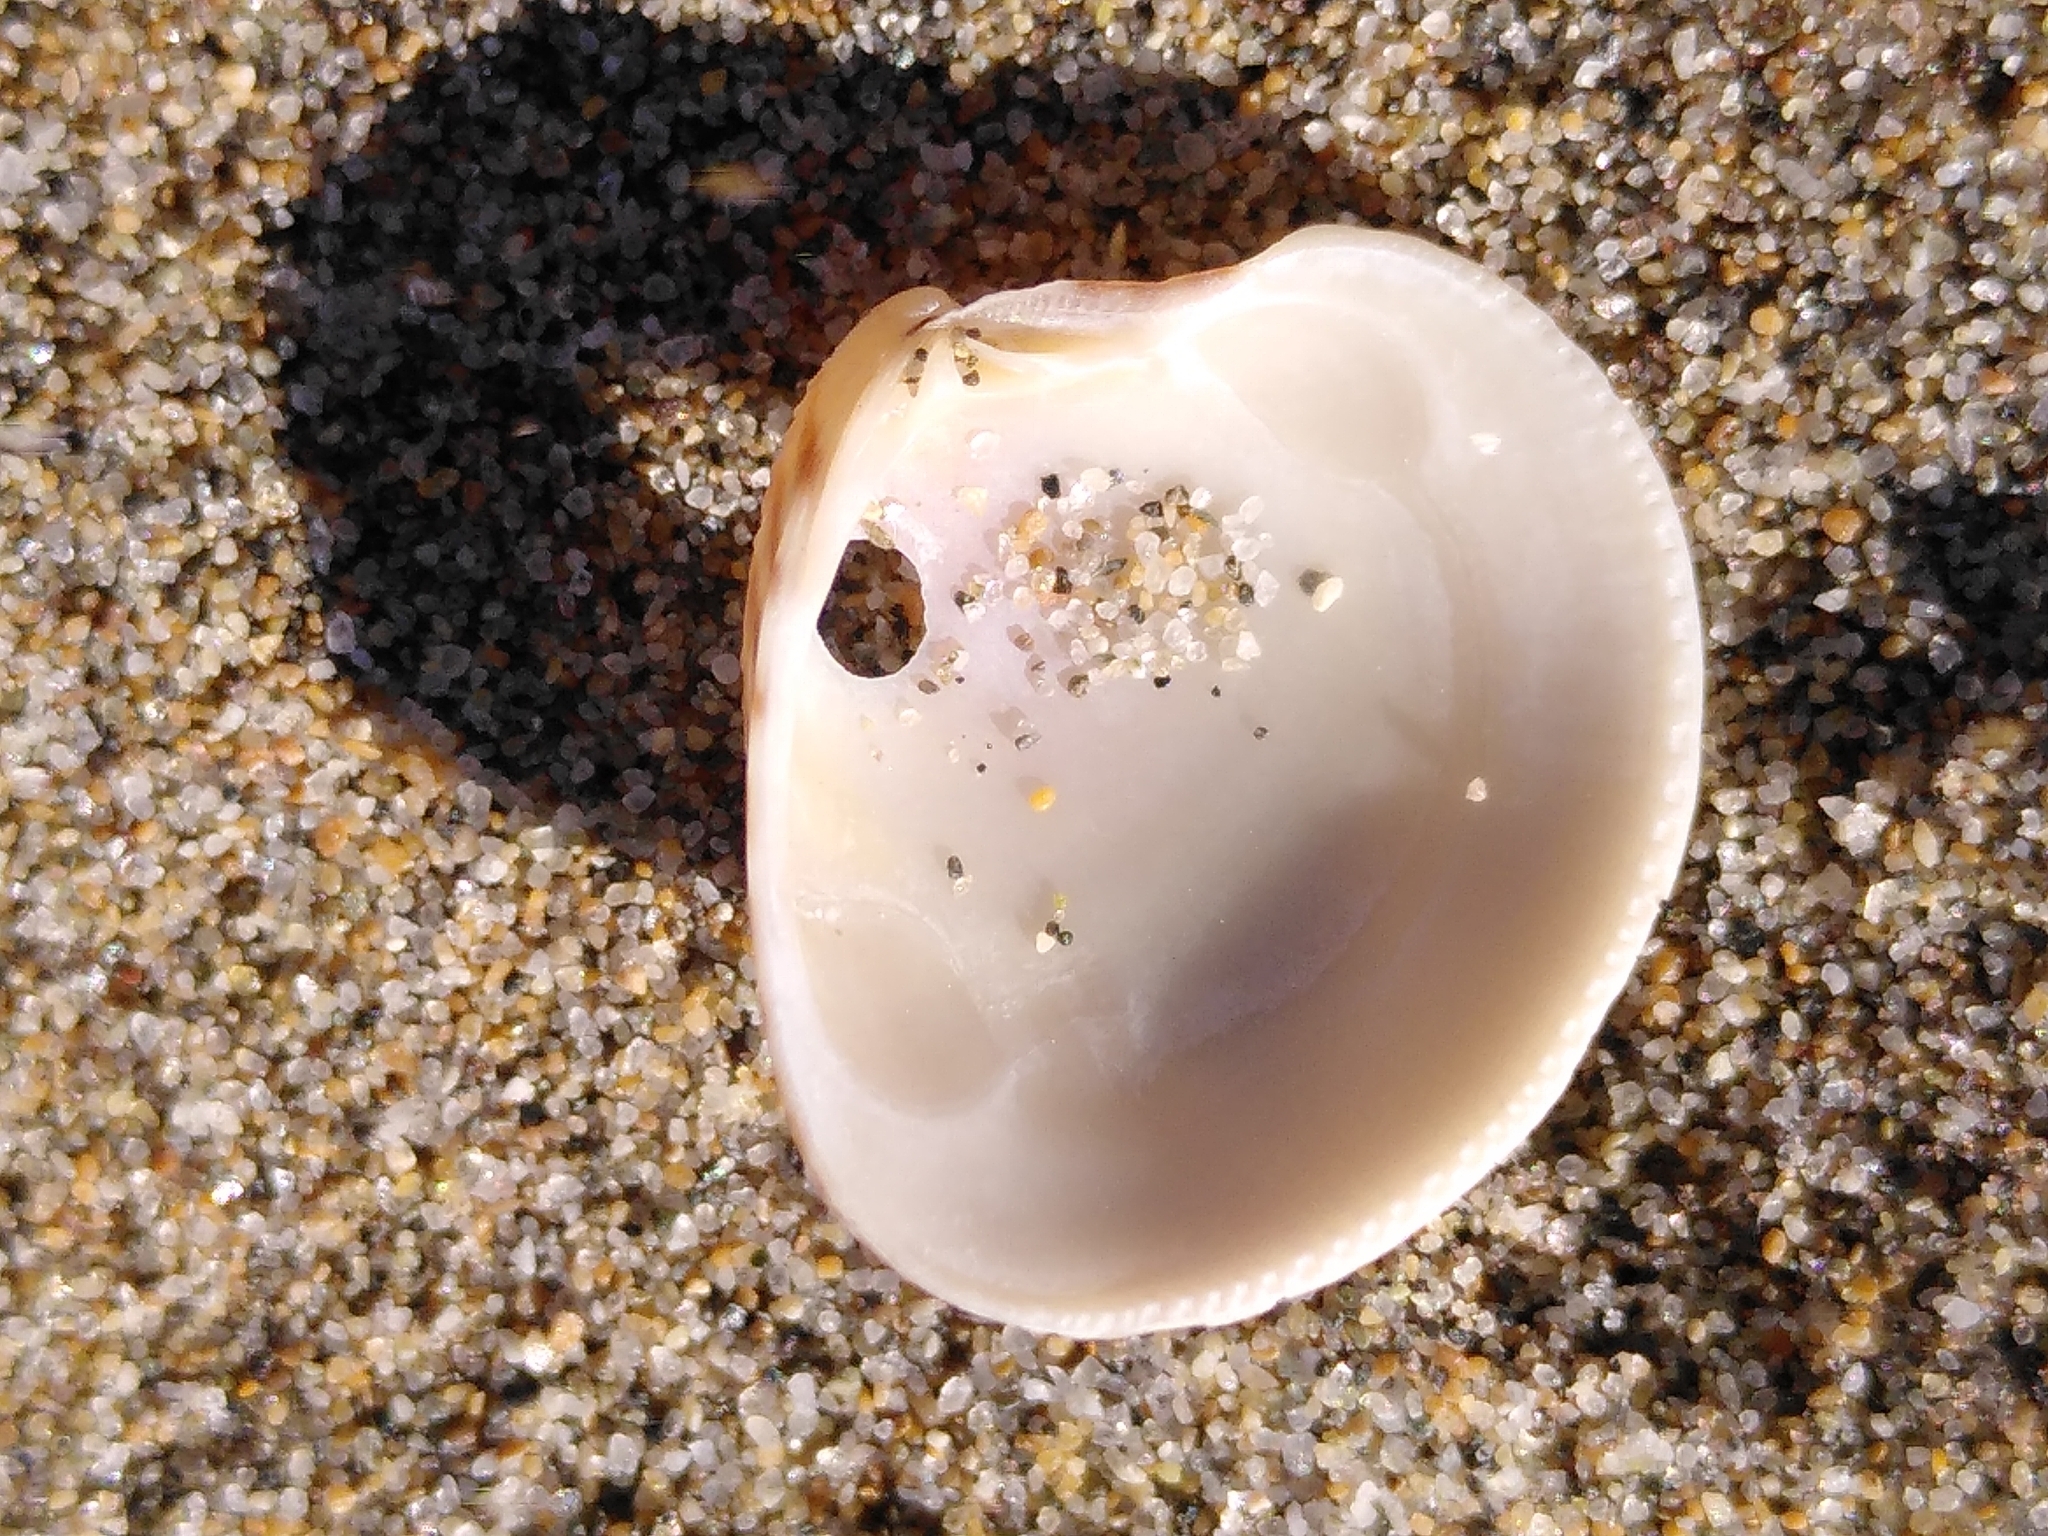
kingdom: Animalia
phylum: Mollusca
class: Bivalvia
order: Venerida
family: Veneridae
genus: Chamelea
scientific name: Chamelea gallina
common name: Chicken venus
